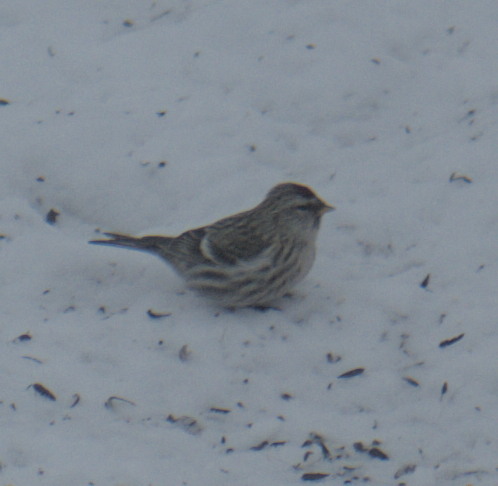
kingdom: Animalia
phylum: Chordata
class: Aves
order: Passeriformes
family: Fringillidae
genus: Acanthis
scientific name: Acanthis flammea
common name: Common redpoll
